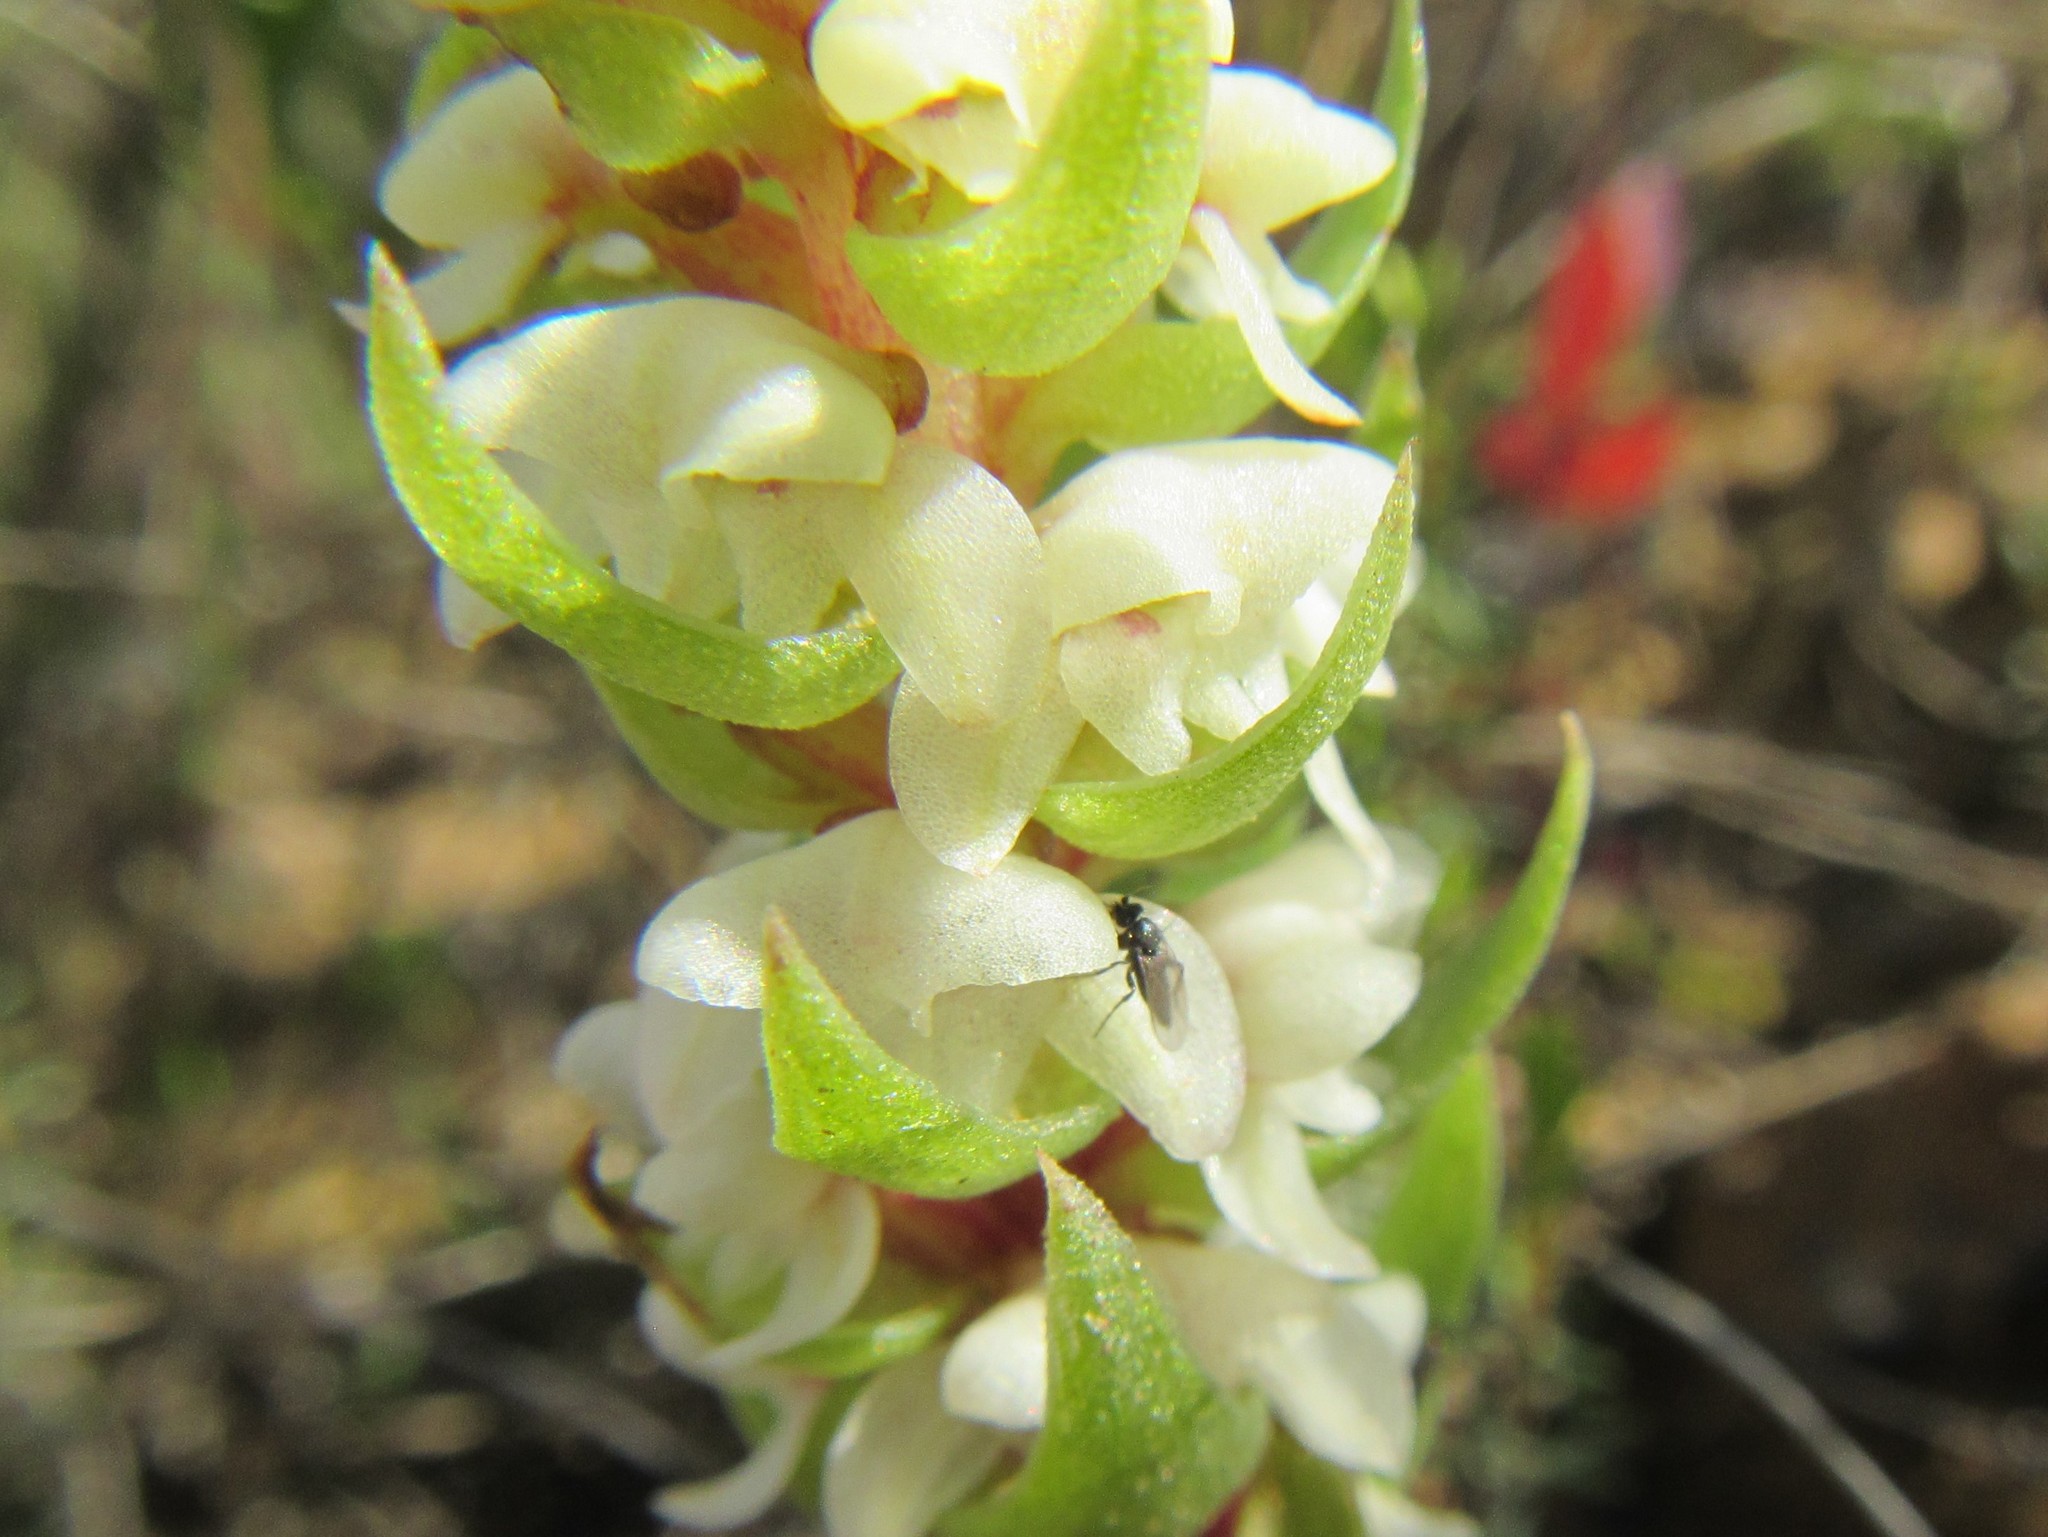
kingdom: Plantae
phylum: Tracheophyta
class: Liliopsida
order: Asparagales
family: Orchidaceae
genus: Satyrium
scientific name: Satyrium bicallosum
